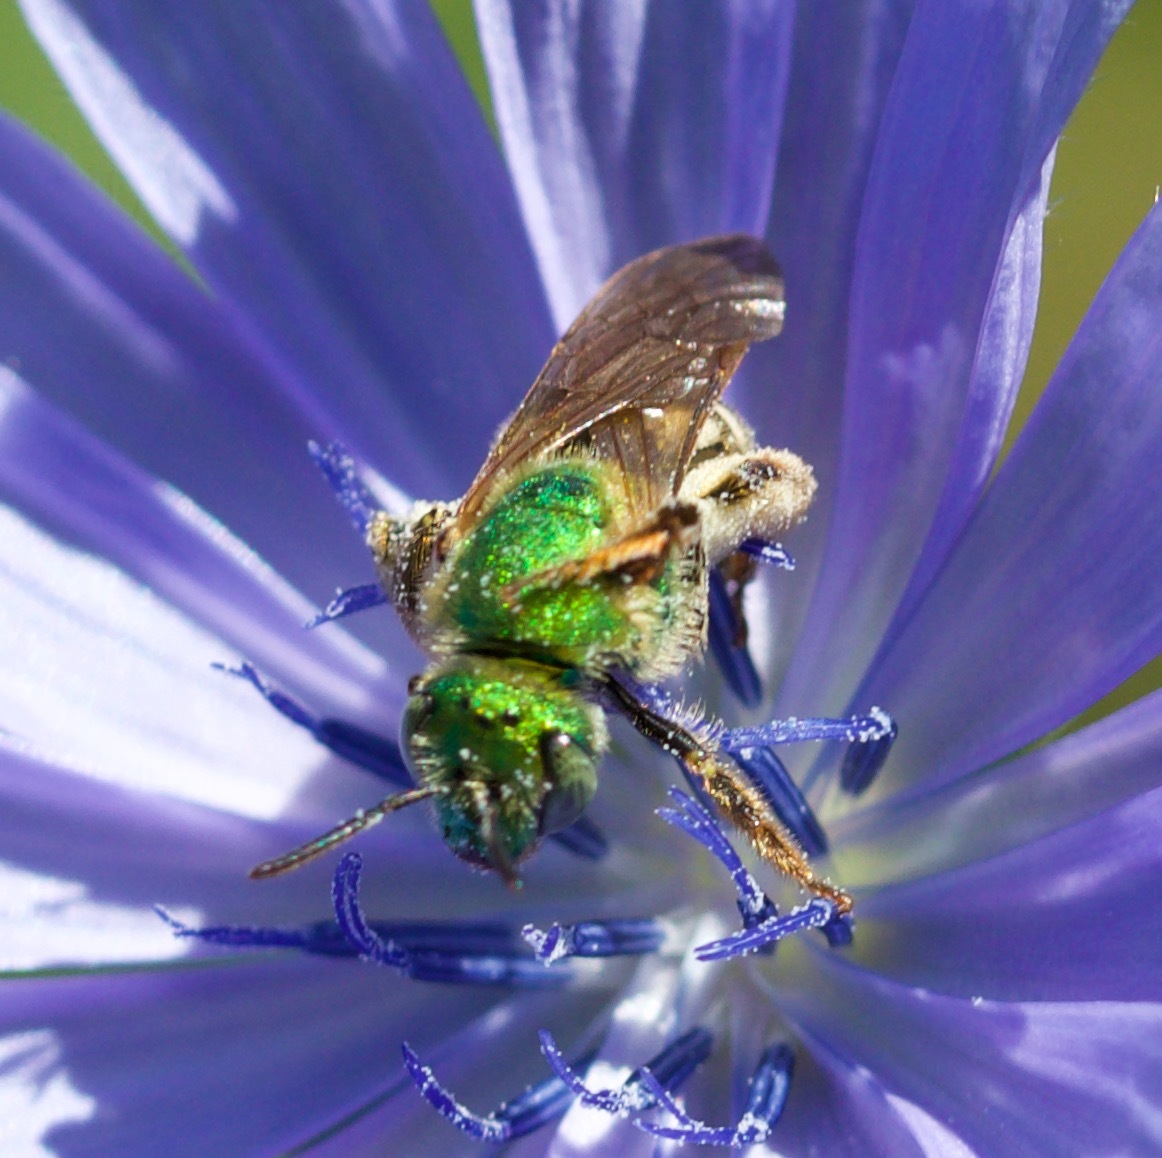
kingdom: Animalia
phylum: Arthropoda
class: Insecta
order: Hymenoptera
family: Halictidae
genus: Agapostemon
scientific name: Agapostemon virescens
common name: Bicolored striped sweat bee
